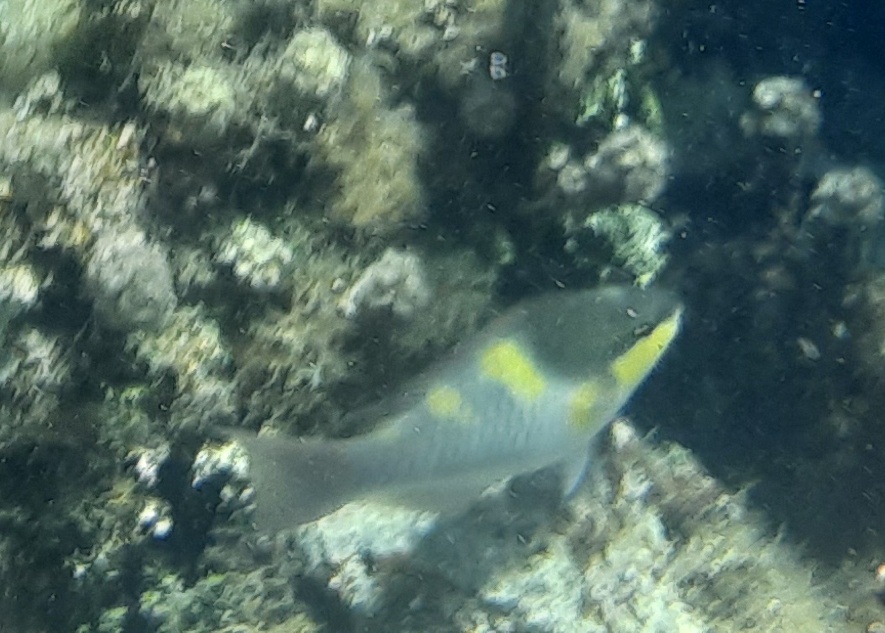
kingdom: Animalia
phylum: Chordata
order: Perciformes
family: Scaridae
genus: Scarus
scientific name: Scarus oviceps
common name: Blue parrotfish
